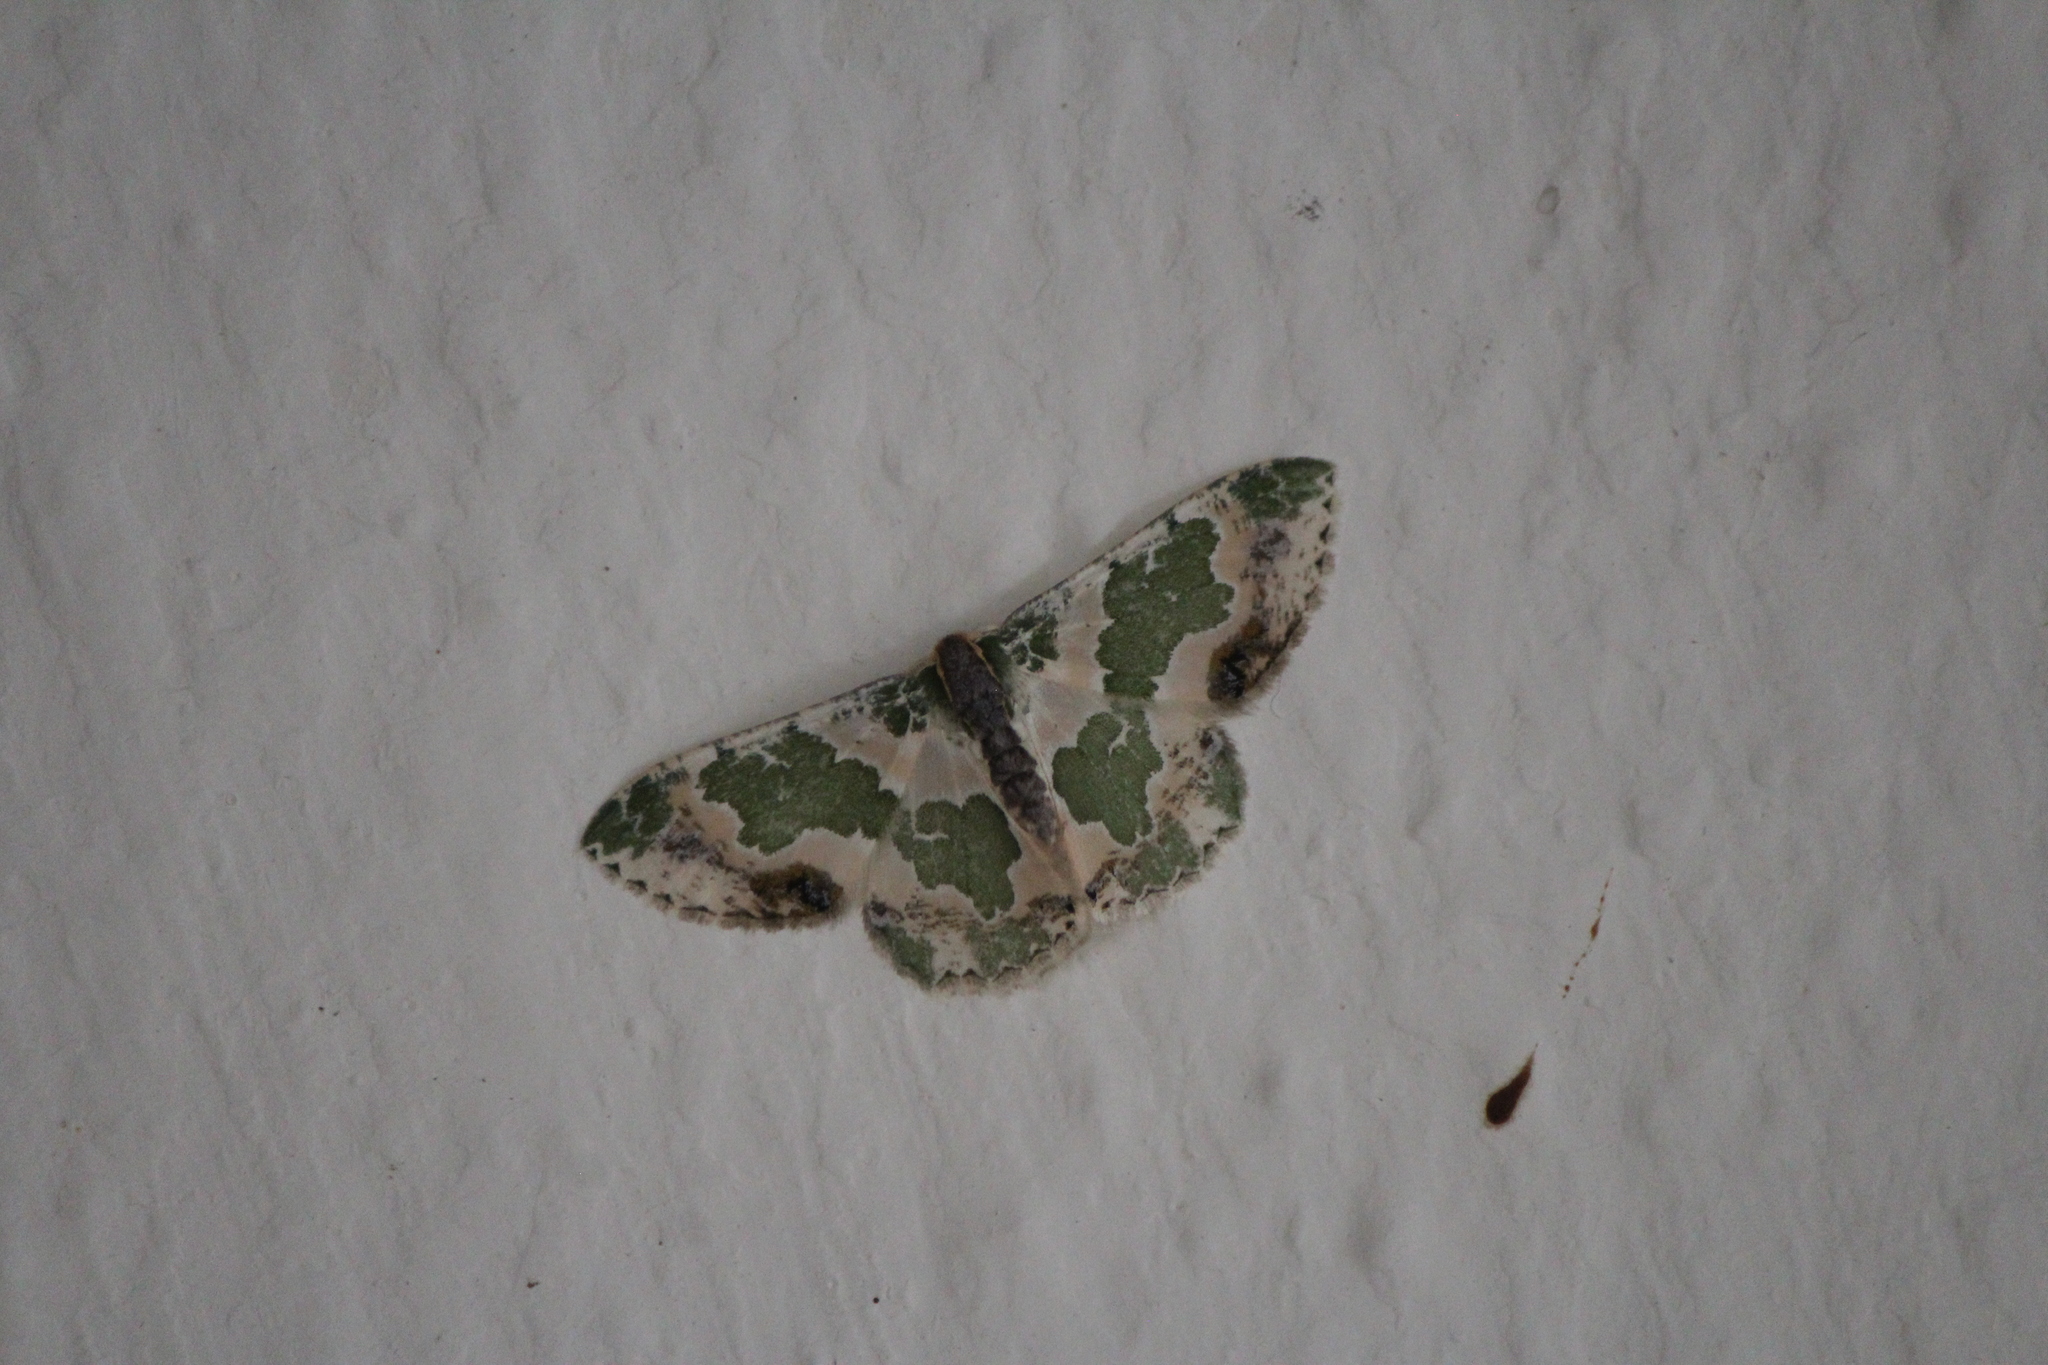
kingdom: Animalia
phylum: Arthropoda
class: Insecta
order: Lepidoptera
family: Geometridae
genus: Lophochorista
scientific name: Lophochorista calliope
